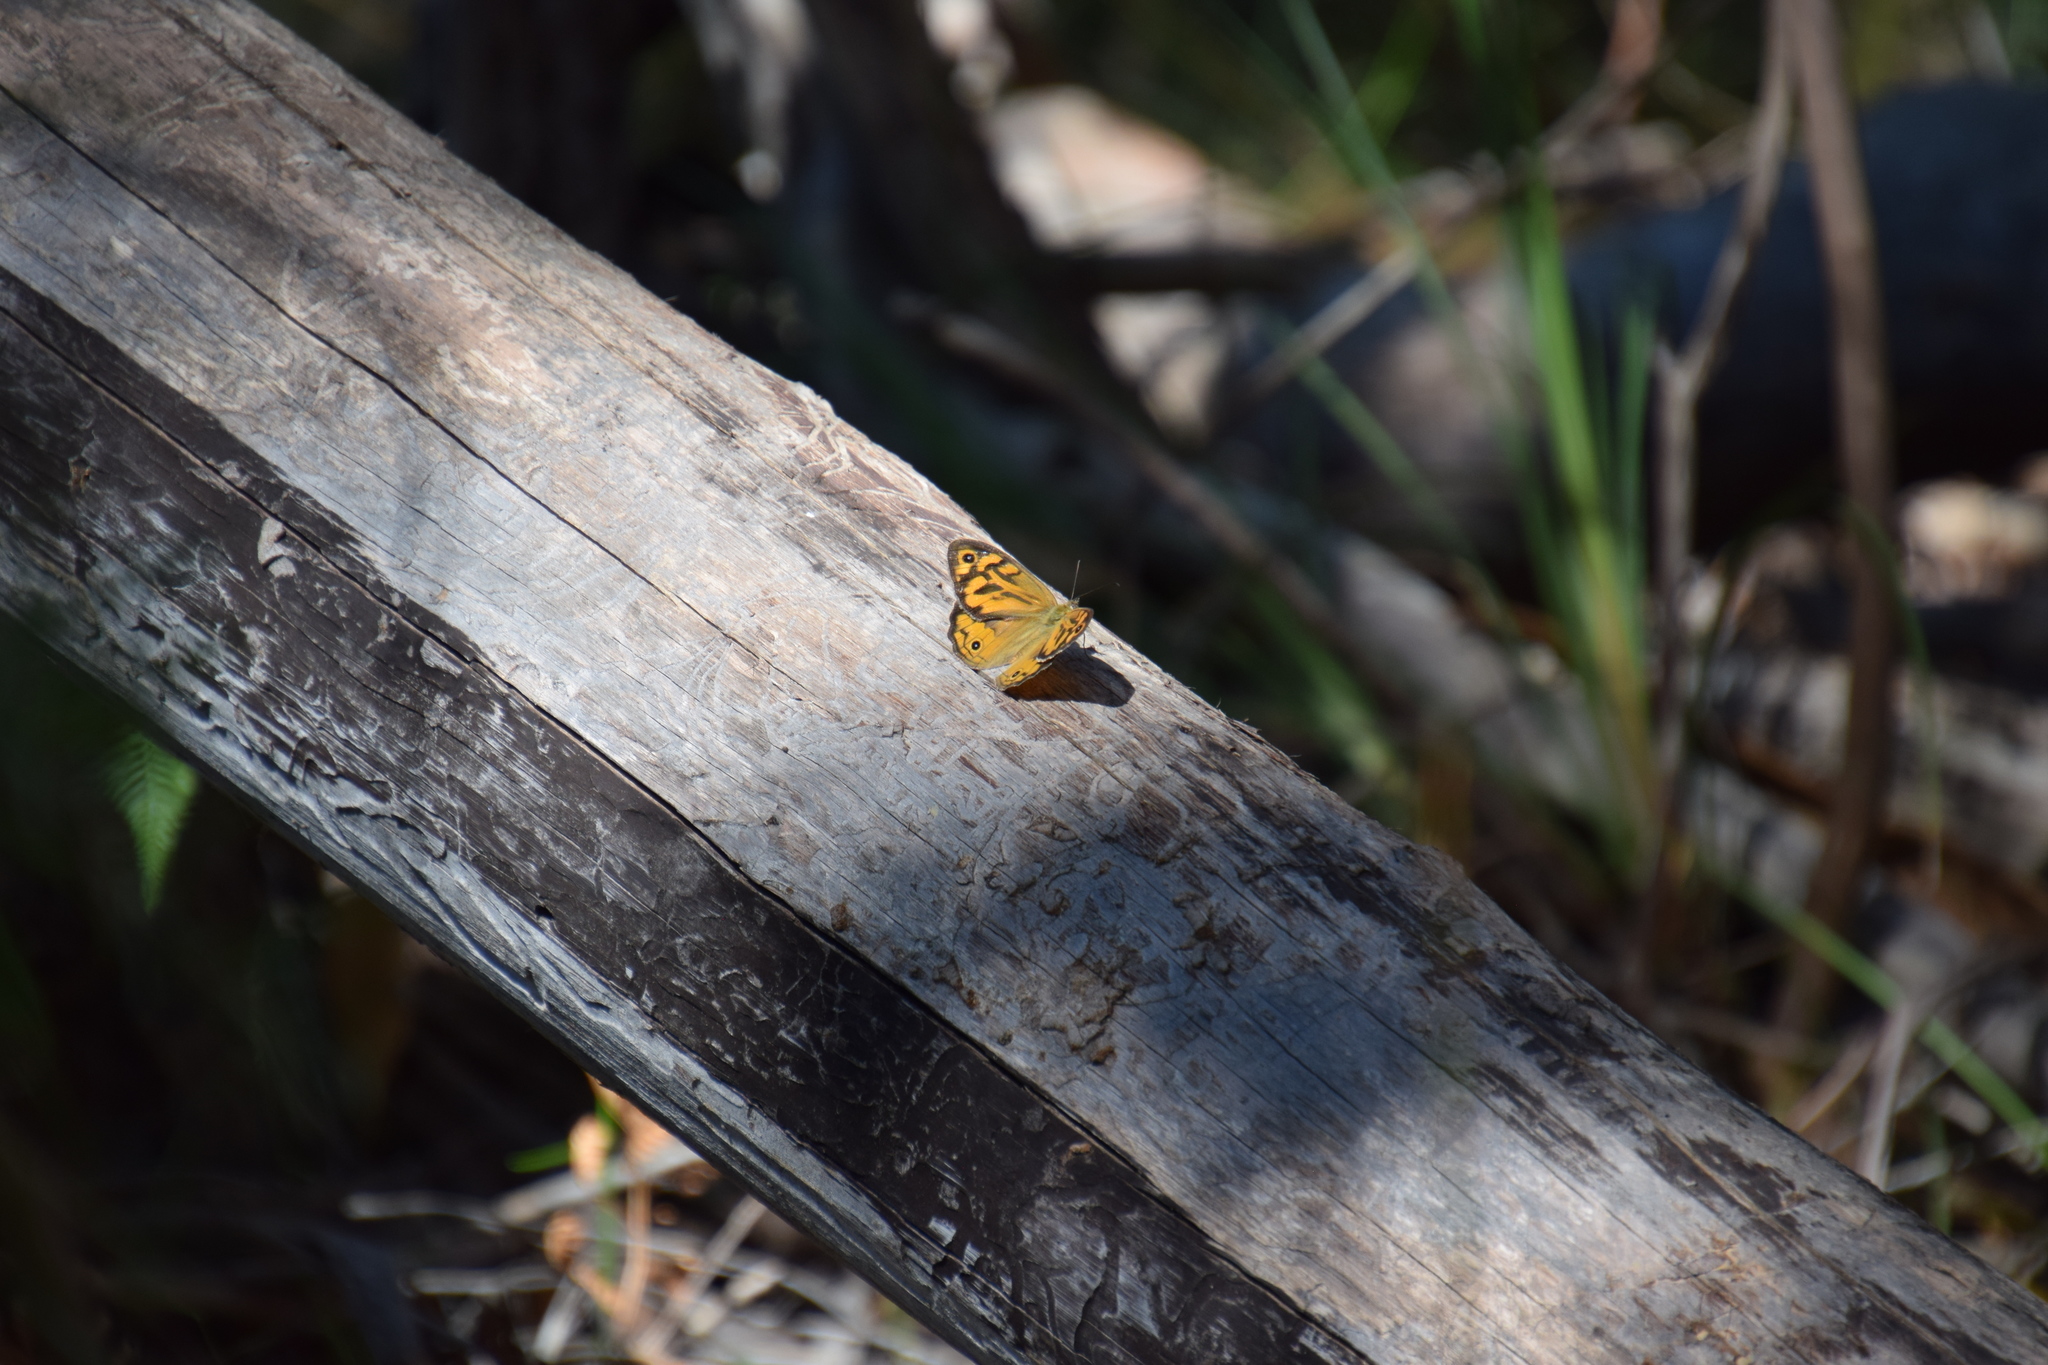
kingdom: Animalia
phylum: Arthropoda
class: Insecta
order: Lepidoptera
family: Nymphalidae
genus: Heteronympha
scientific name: Heteronympha merope
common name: Common brown
